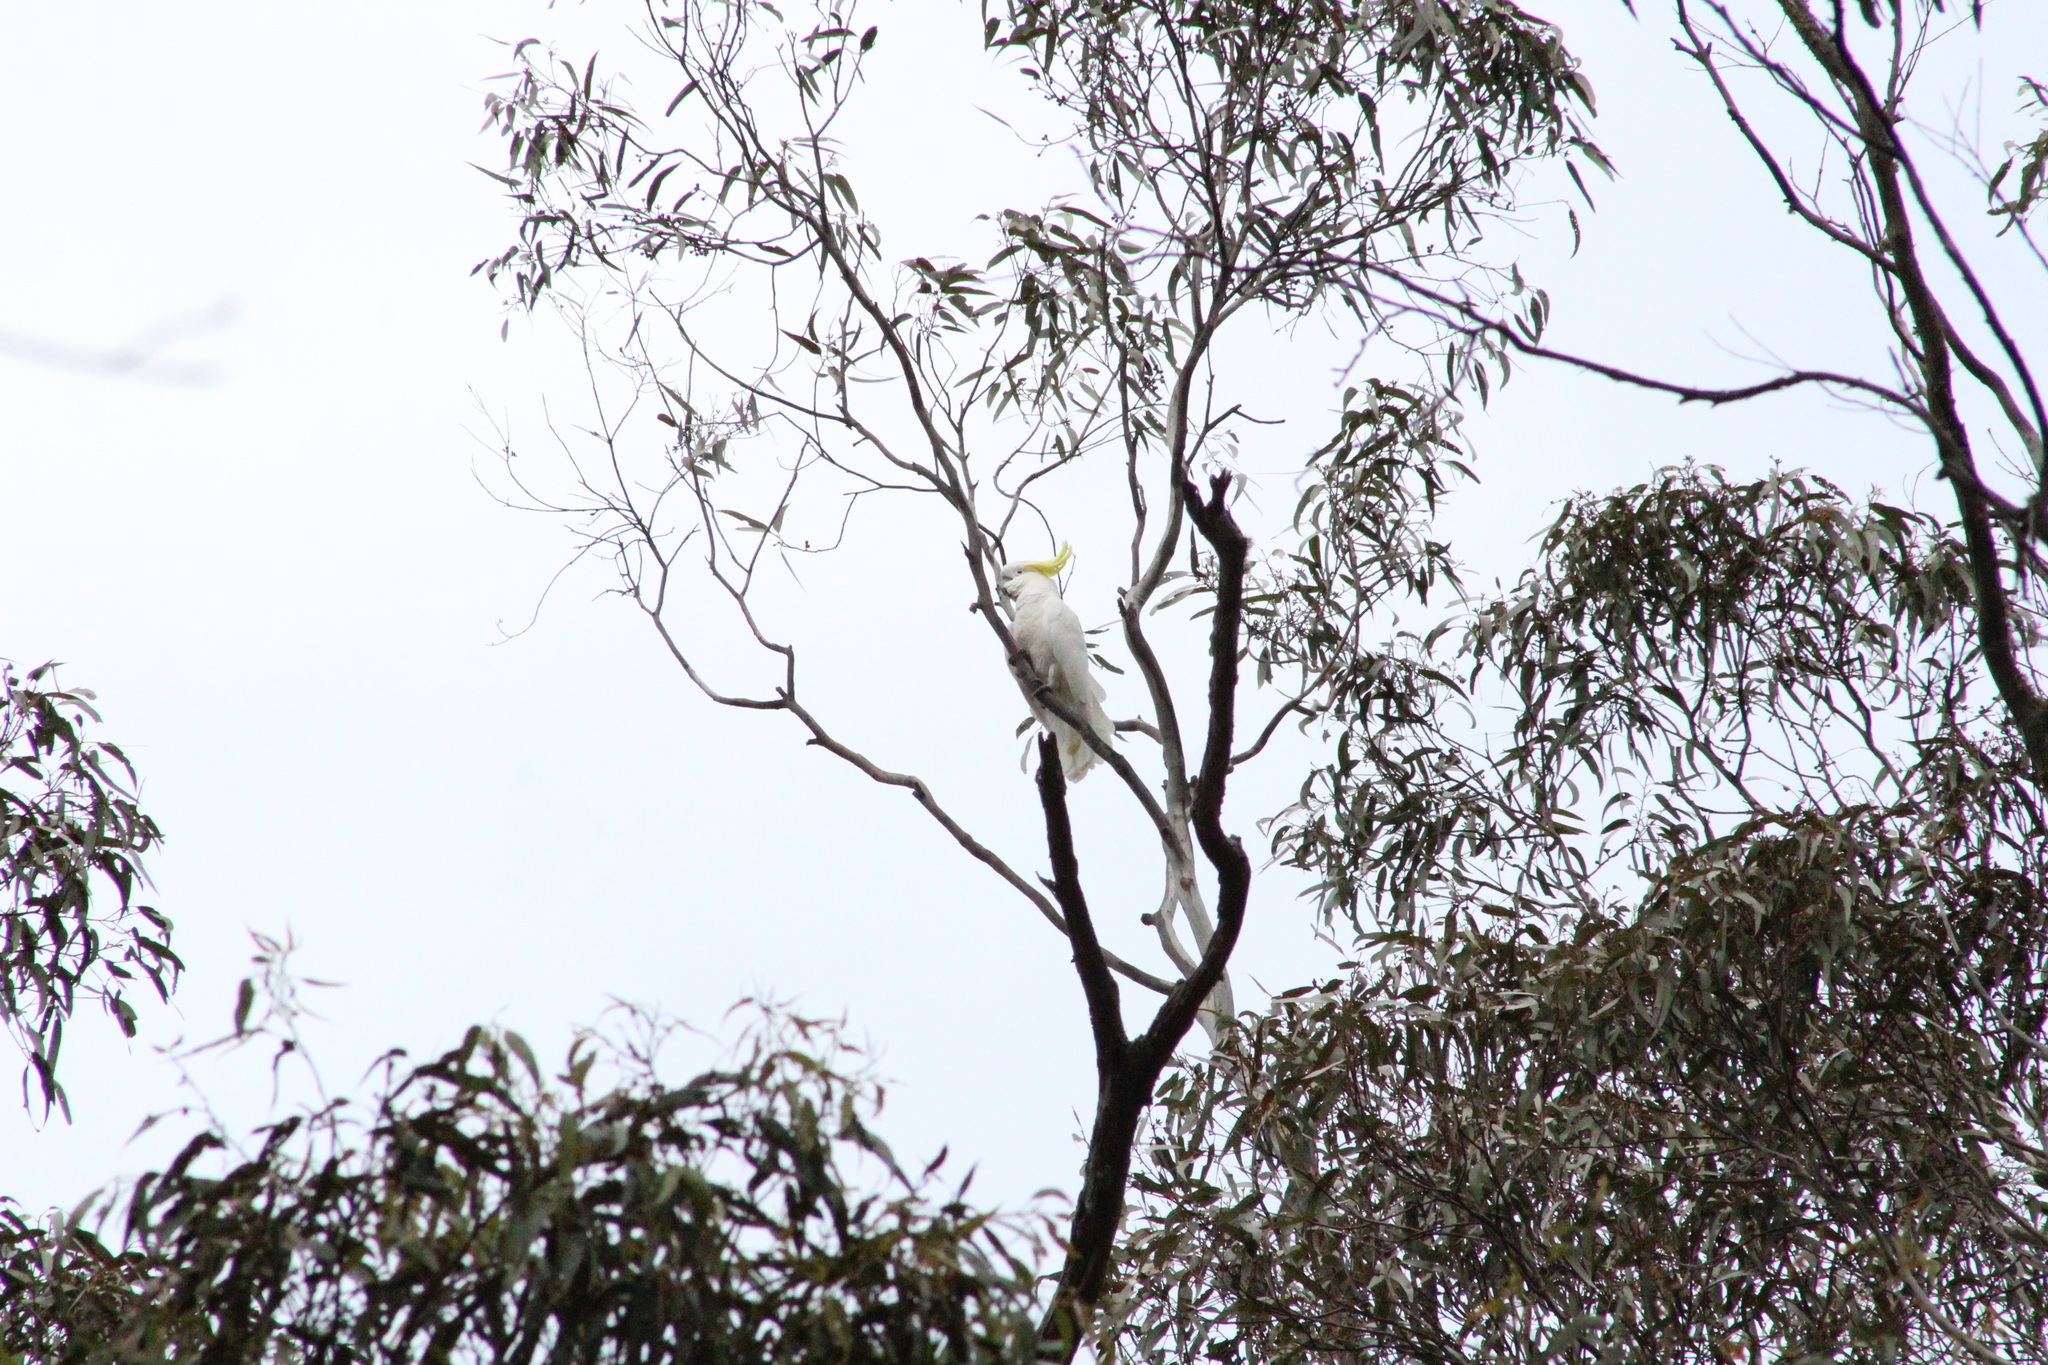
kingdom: Animalia
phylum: Chordata
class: Aves
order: Psittaciformes
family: Psittacidae
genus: Cacatua
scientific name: Cacatua galerita
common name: Sulphur-crested cockatoo
